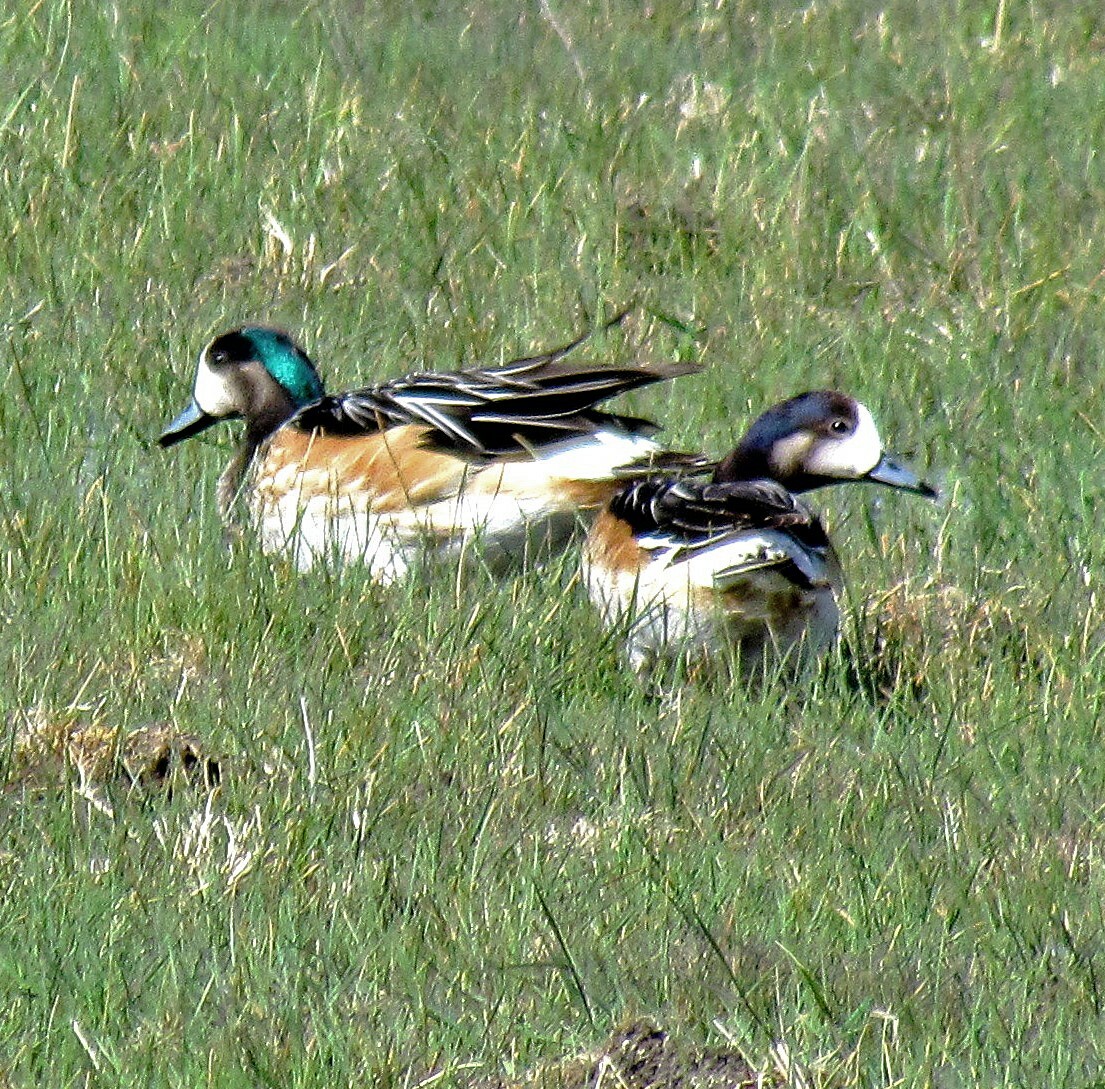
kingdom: Animalia
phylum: Chordata
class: Aves
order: Anseriformes
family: Anatidae
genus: Mareca
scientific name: Mareca sibilatrix
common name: Chiloe wigeon
